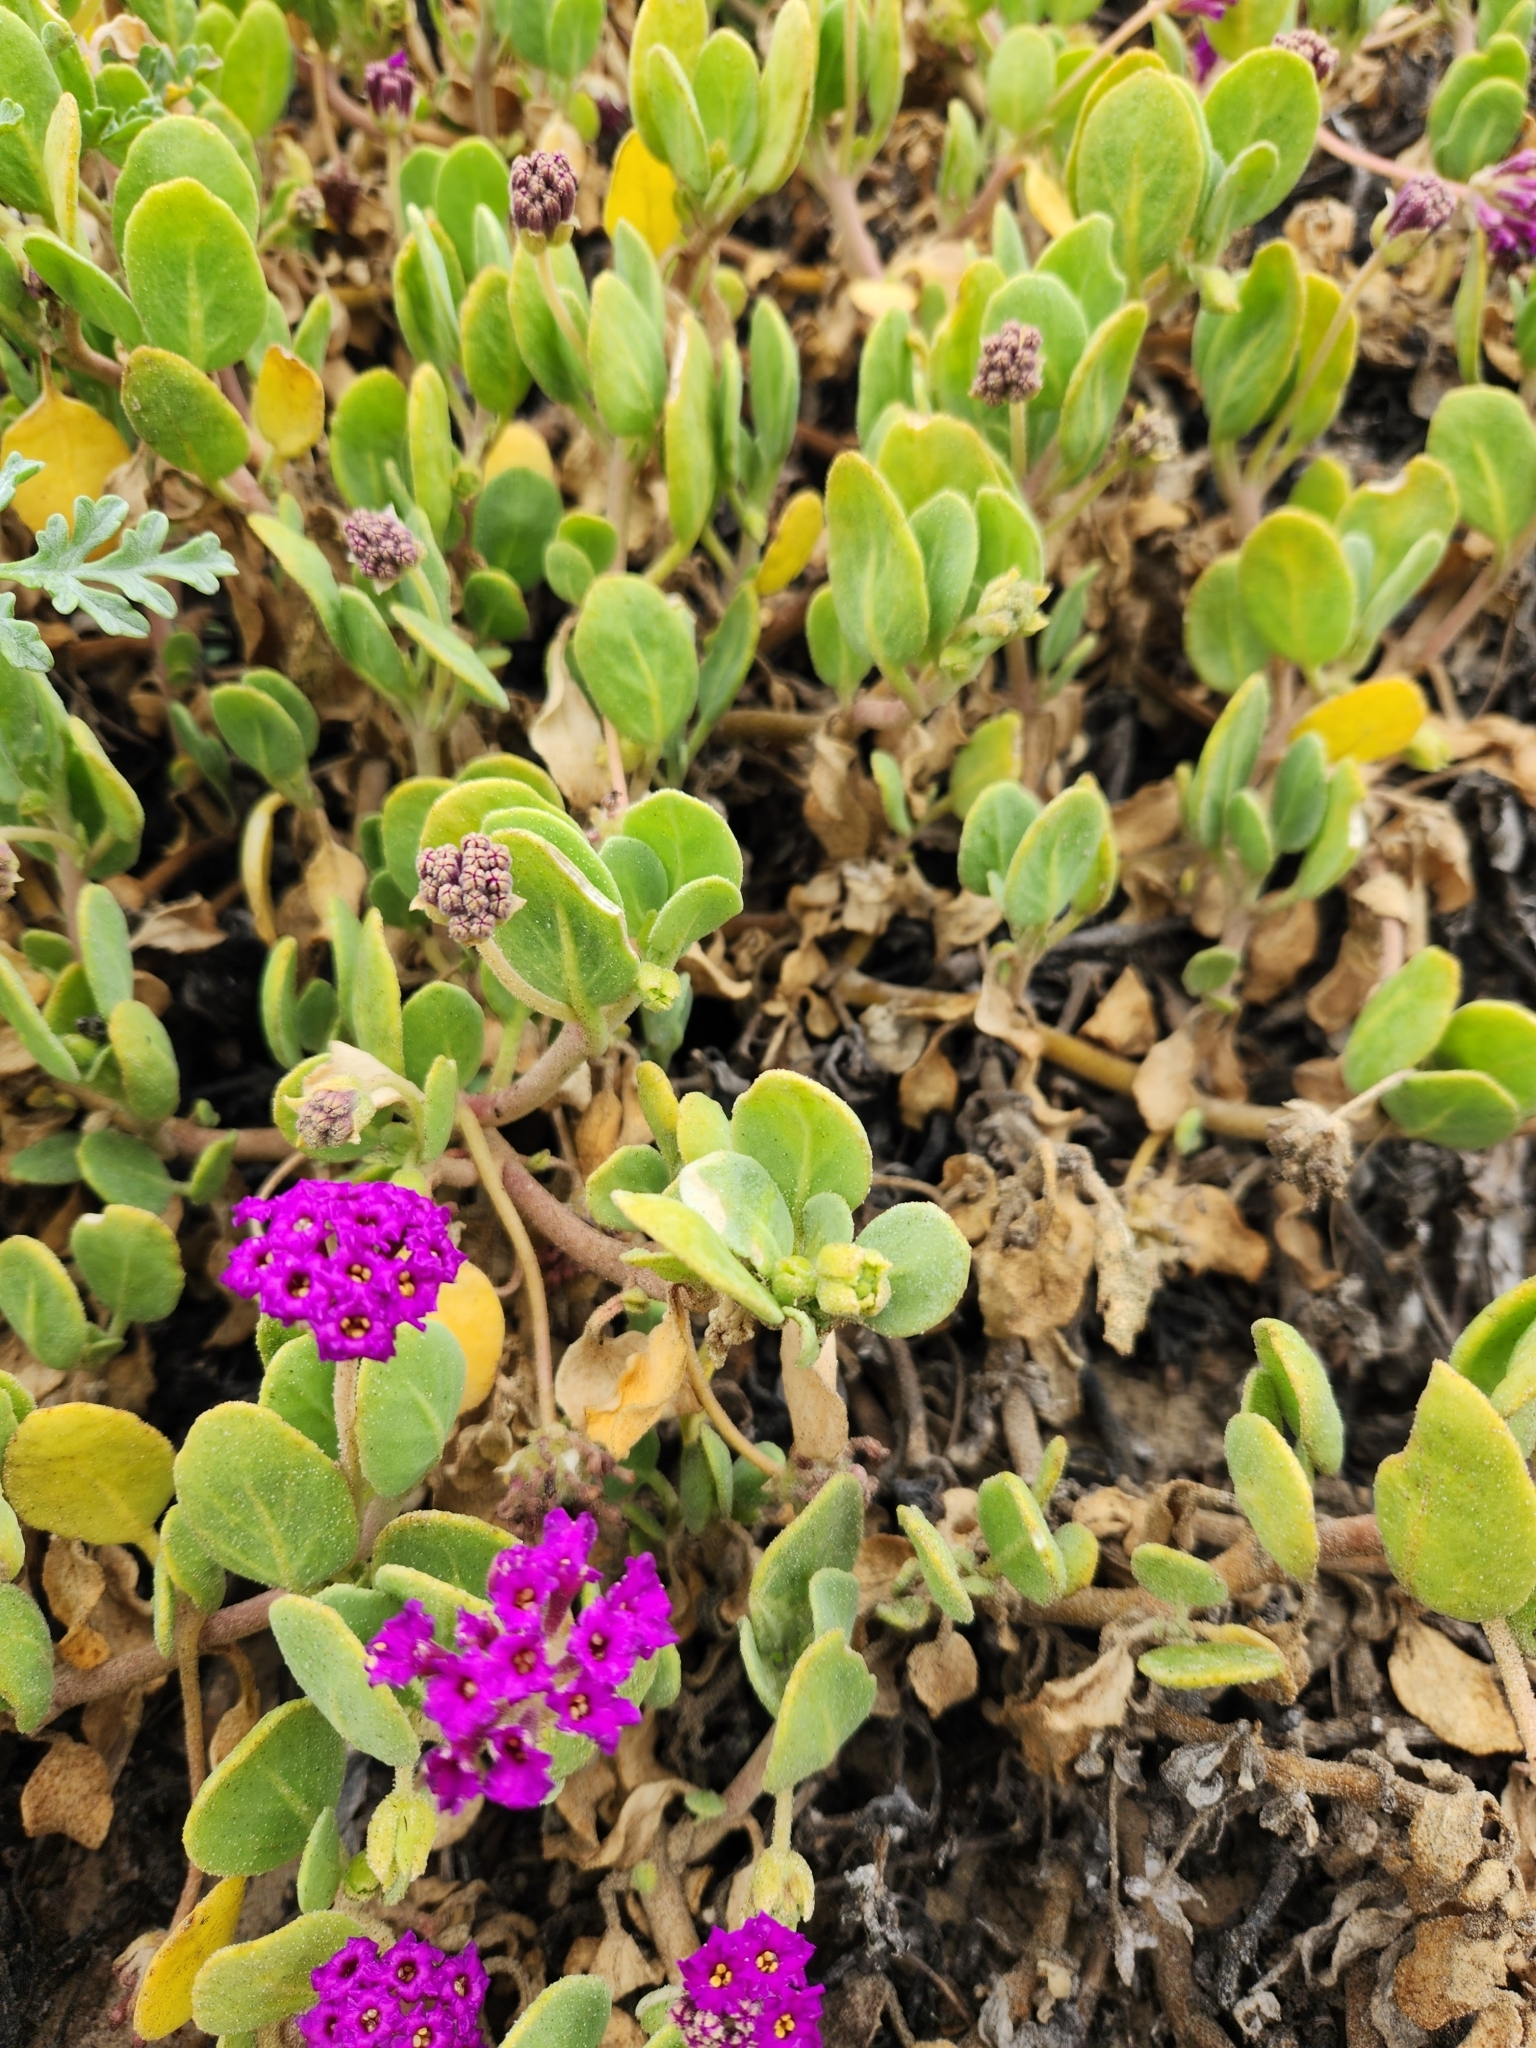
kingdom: Plantae
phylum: Tracheophyta
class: Magnoliopsida
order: Caryophyllales
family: Nyctaginaceae
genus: Abronia
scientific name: Abronia maritima
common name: Red sand-verbena
